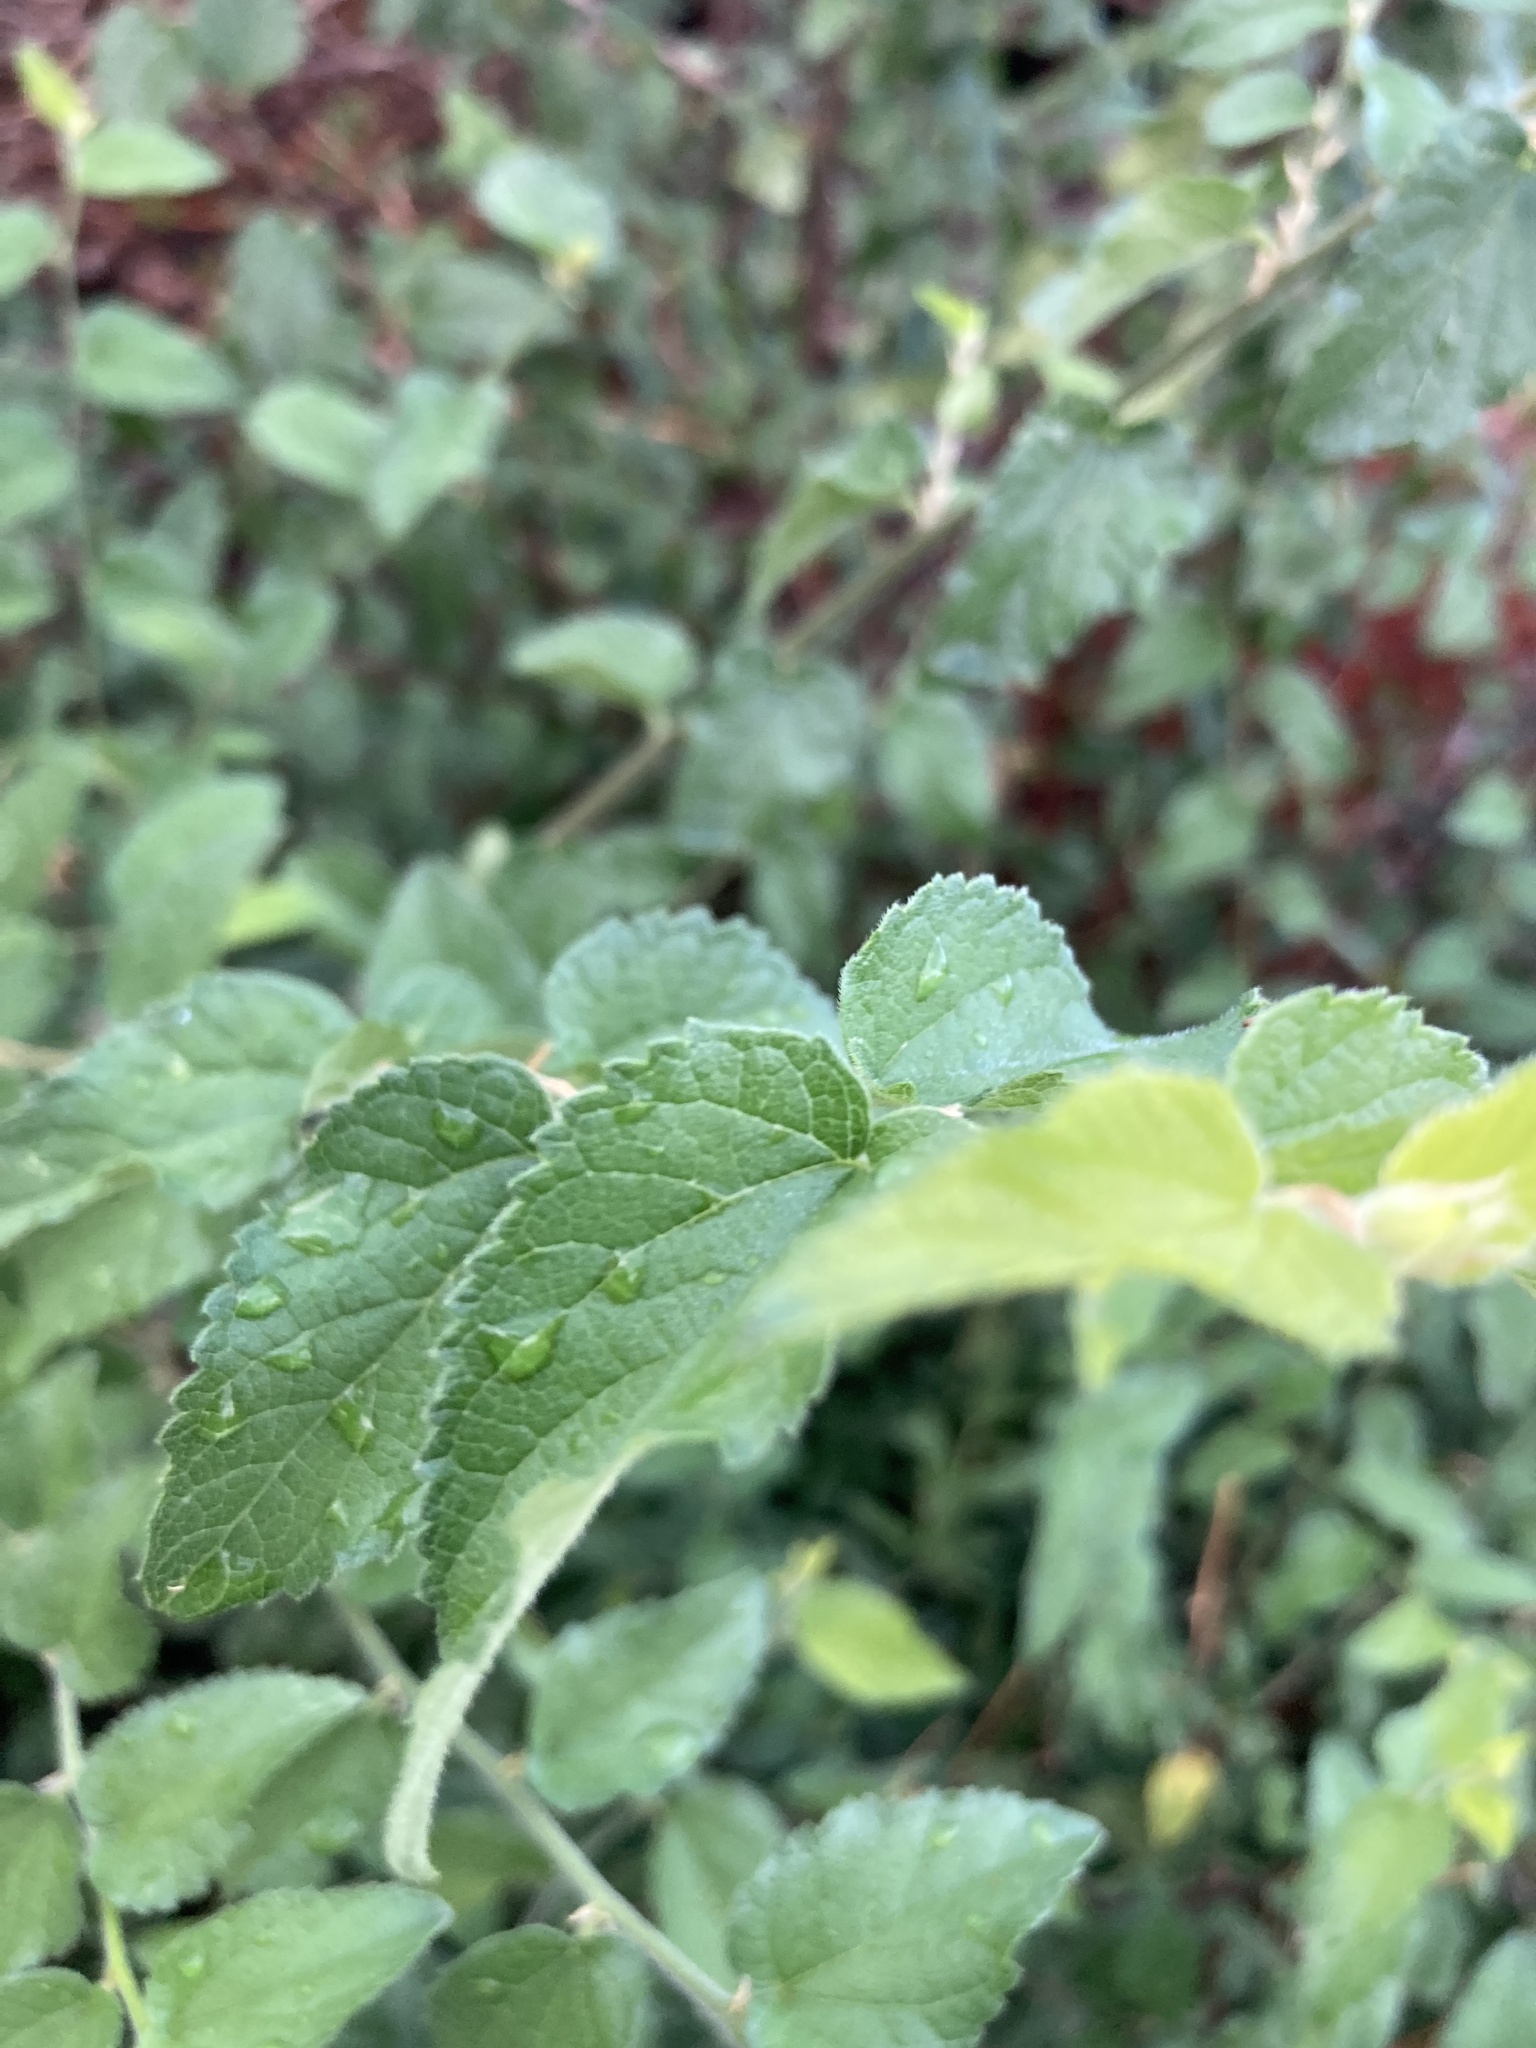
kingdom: Plantae
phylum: Tracheophyta
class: Magnoliopsida
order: Rosales
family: Cannabaceae
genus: Celtis
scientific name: Celtis reticulata
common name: Netleaf hackberry
